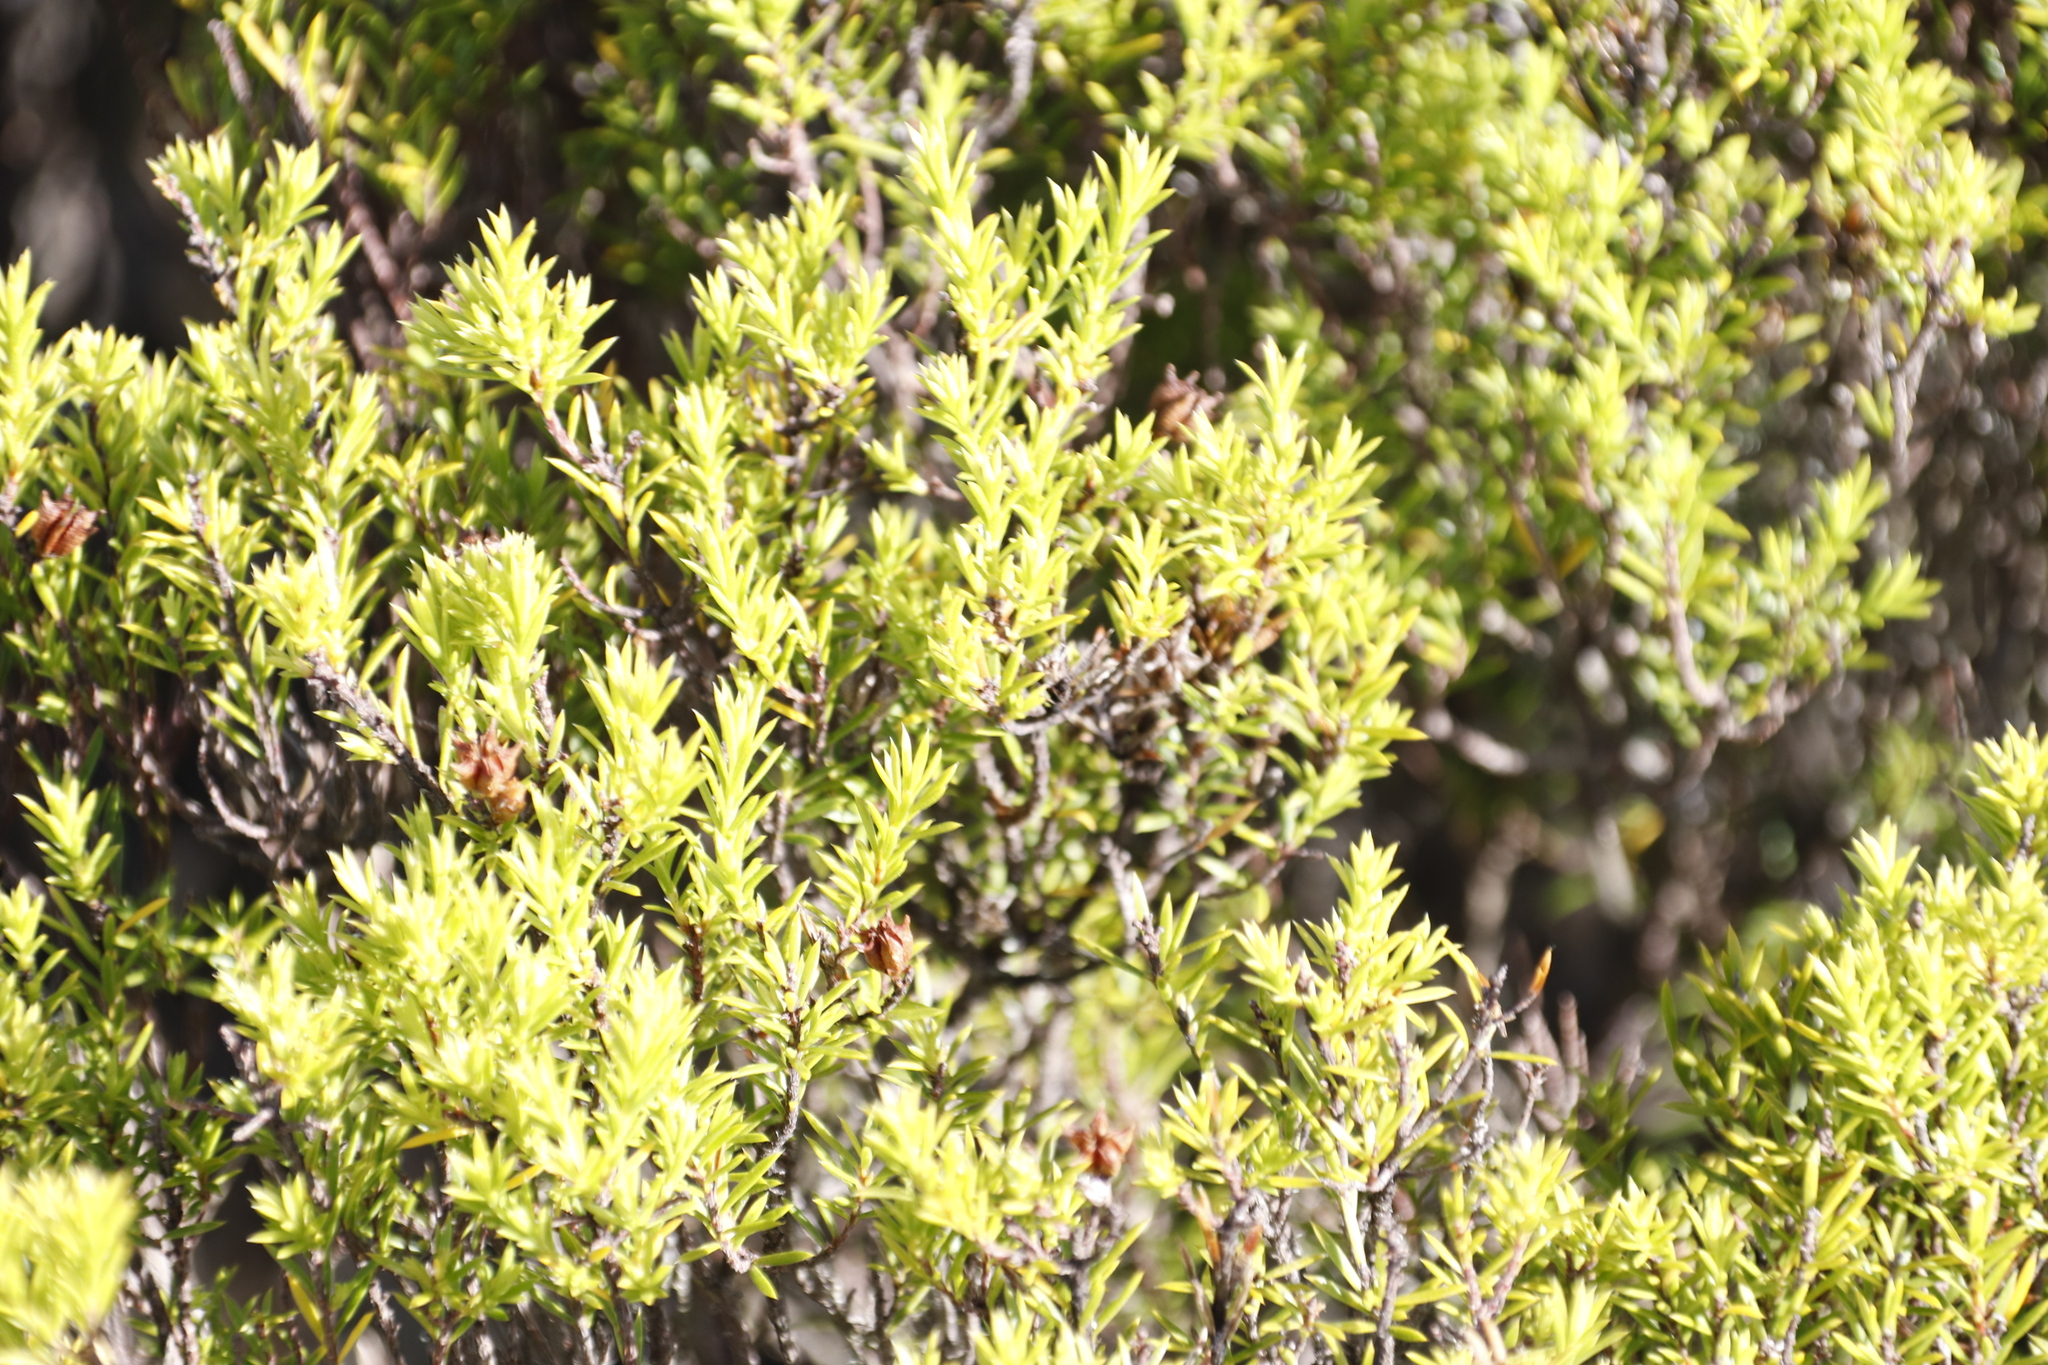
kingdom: Plantae
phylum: Tracheophyta
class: Magnoliopsida
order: Sapindales
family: Rutaceae
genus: Coleonema
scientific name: Coleonema album
